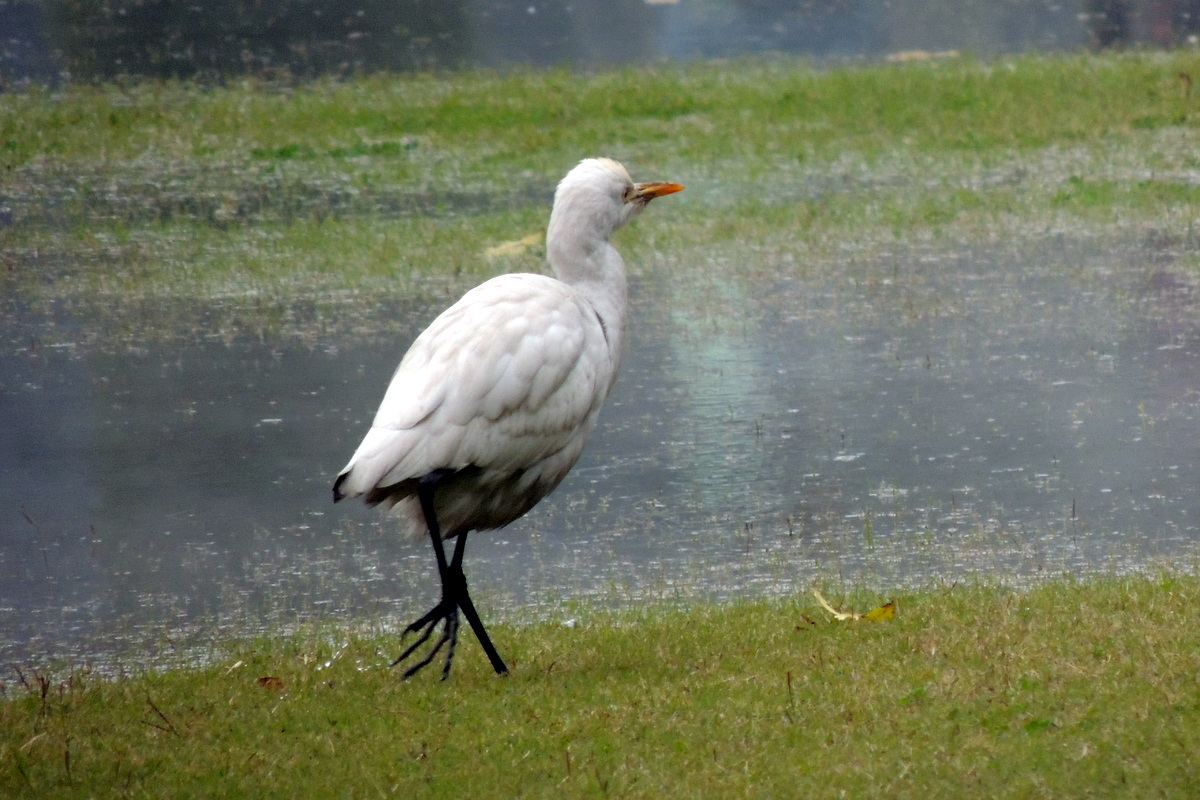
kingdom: Animalia
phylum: Chordata
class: Aves
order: Pelecaniformes
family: Ardeidae
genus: Bubulcus
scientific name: Bubulcus coromandus
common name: Eastern cattle egret
